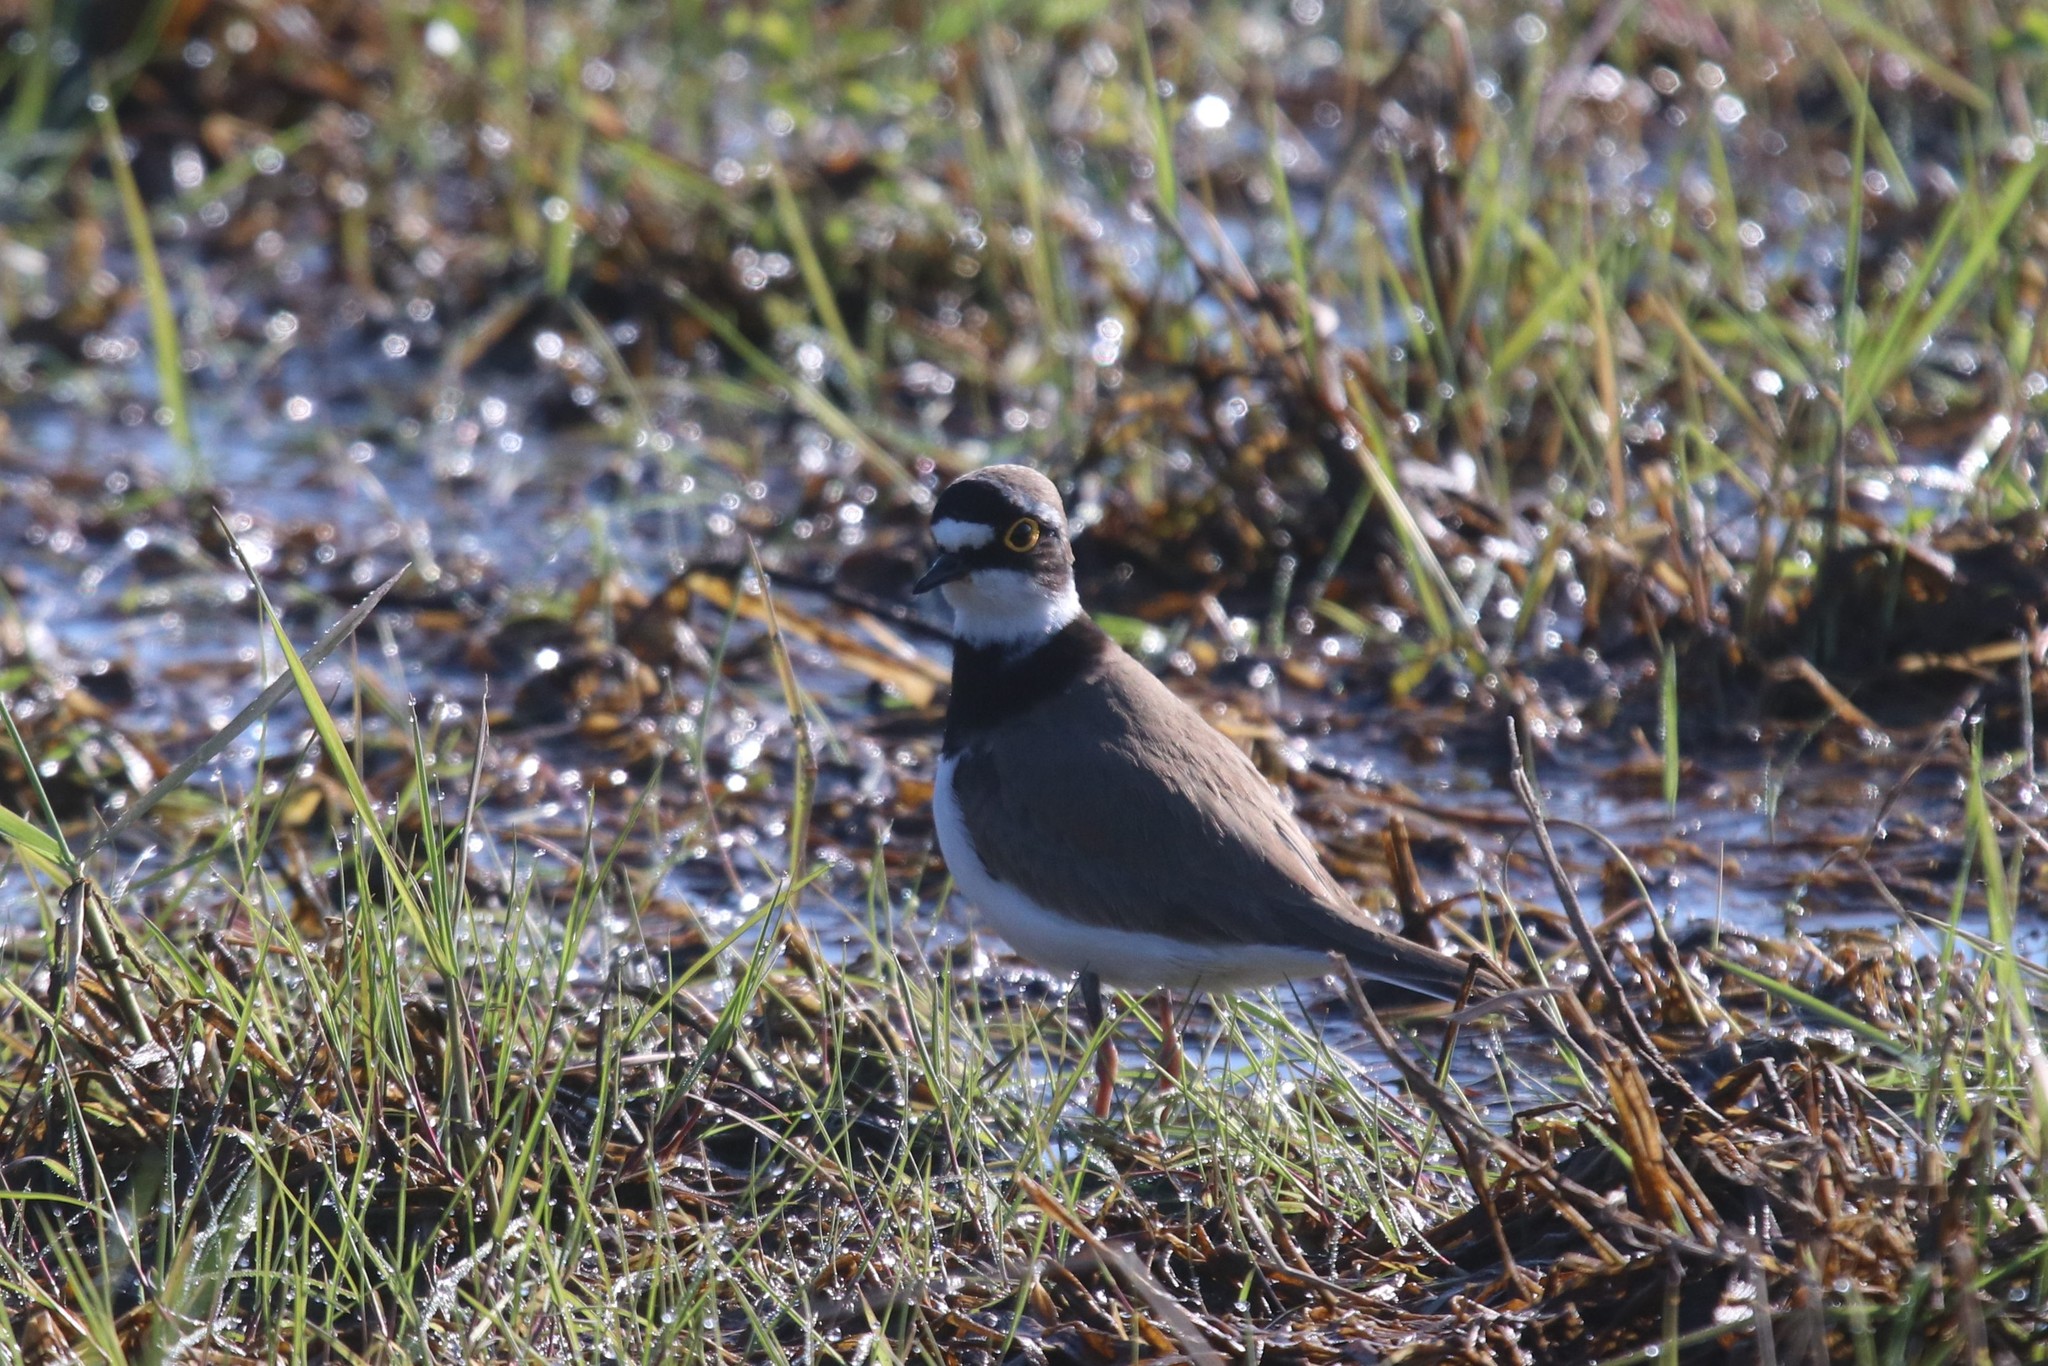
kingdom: Animalia
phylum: Chordata
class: Aves
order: Charadriiformes
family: Charadriidae
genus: Charadrius
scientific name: Charadrius dubius
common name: Little ringed plover
